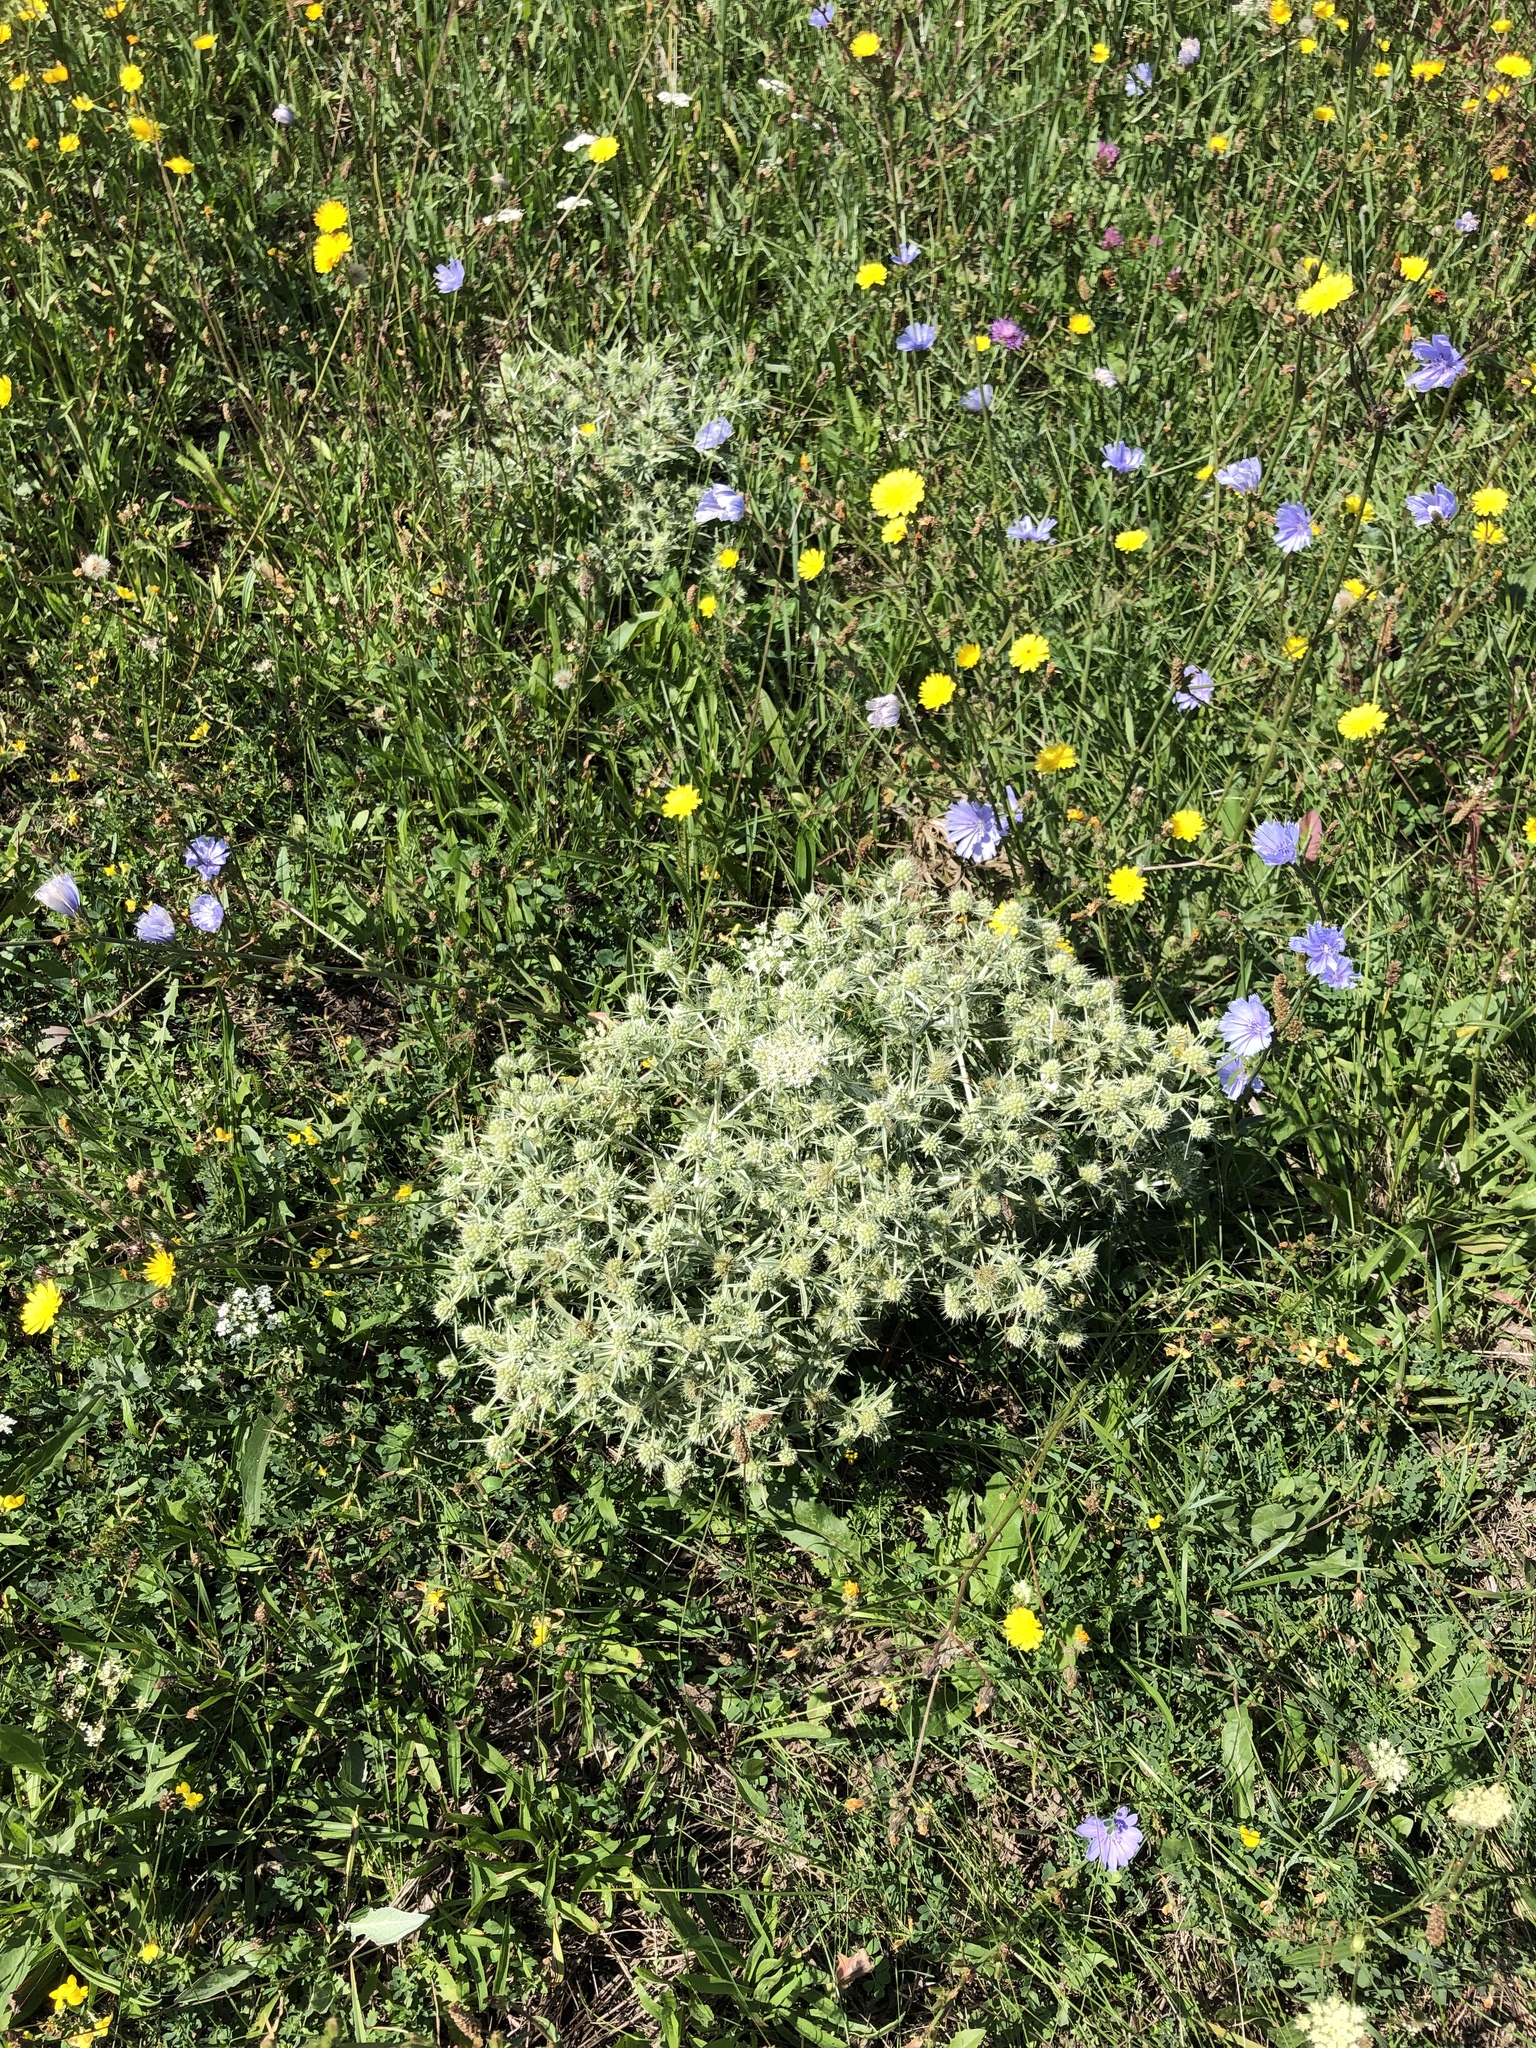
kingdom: Plantae
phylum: Tracheophyta
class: Magnoliopsida
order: Apiales
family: Apiaceae
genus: Eryngium
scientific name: Eryngium campestre
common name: Field eryngo
